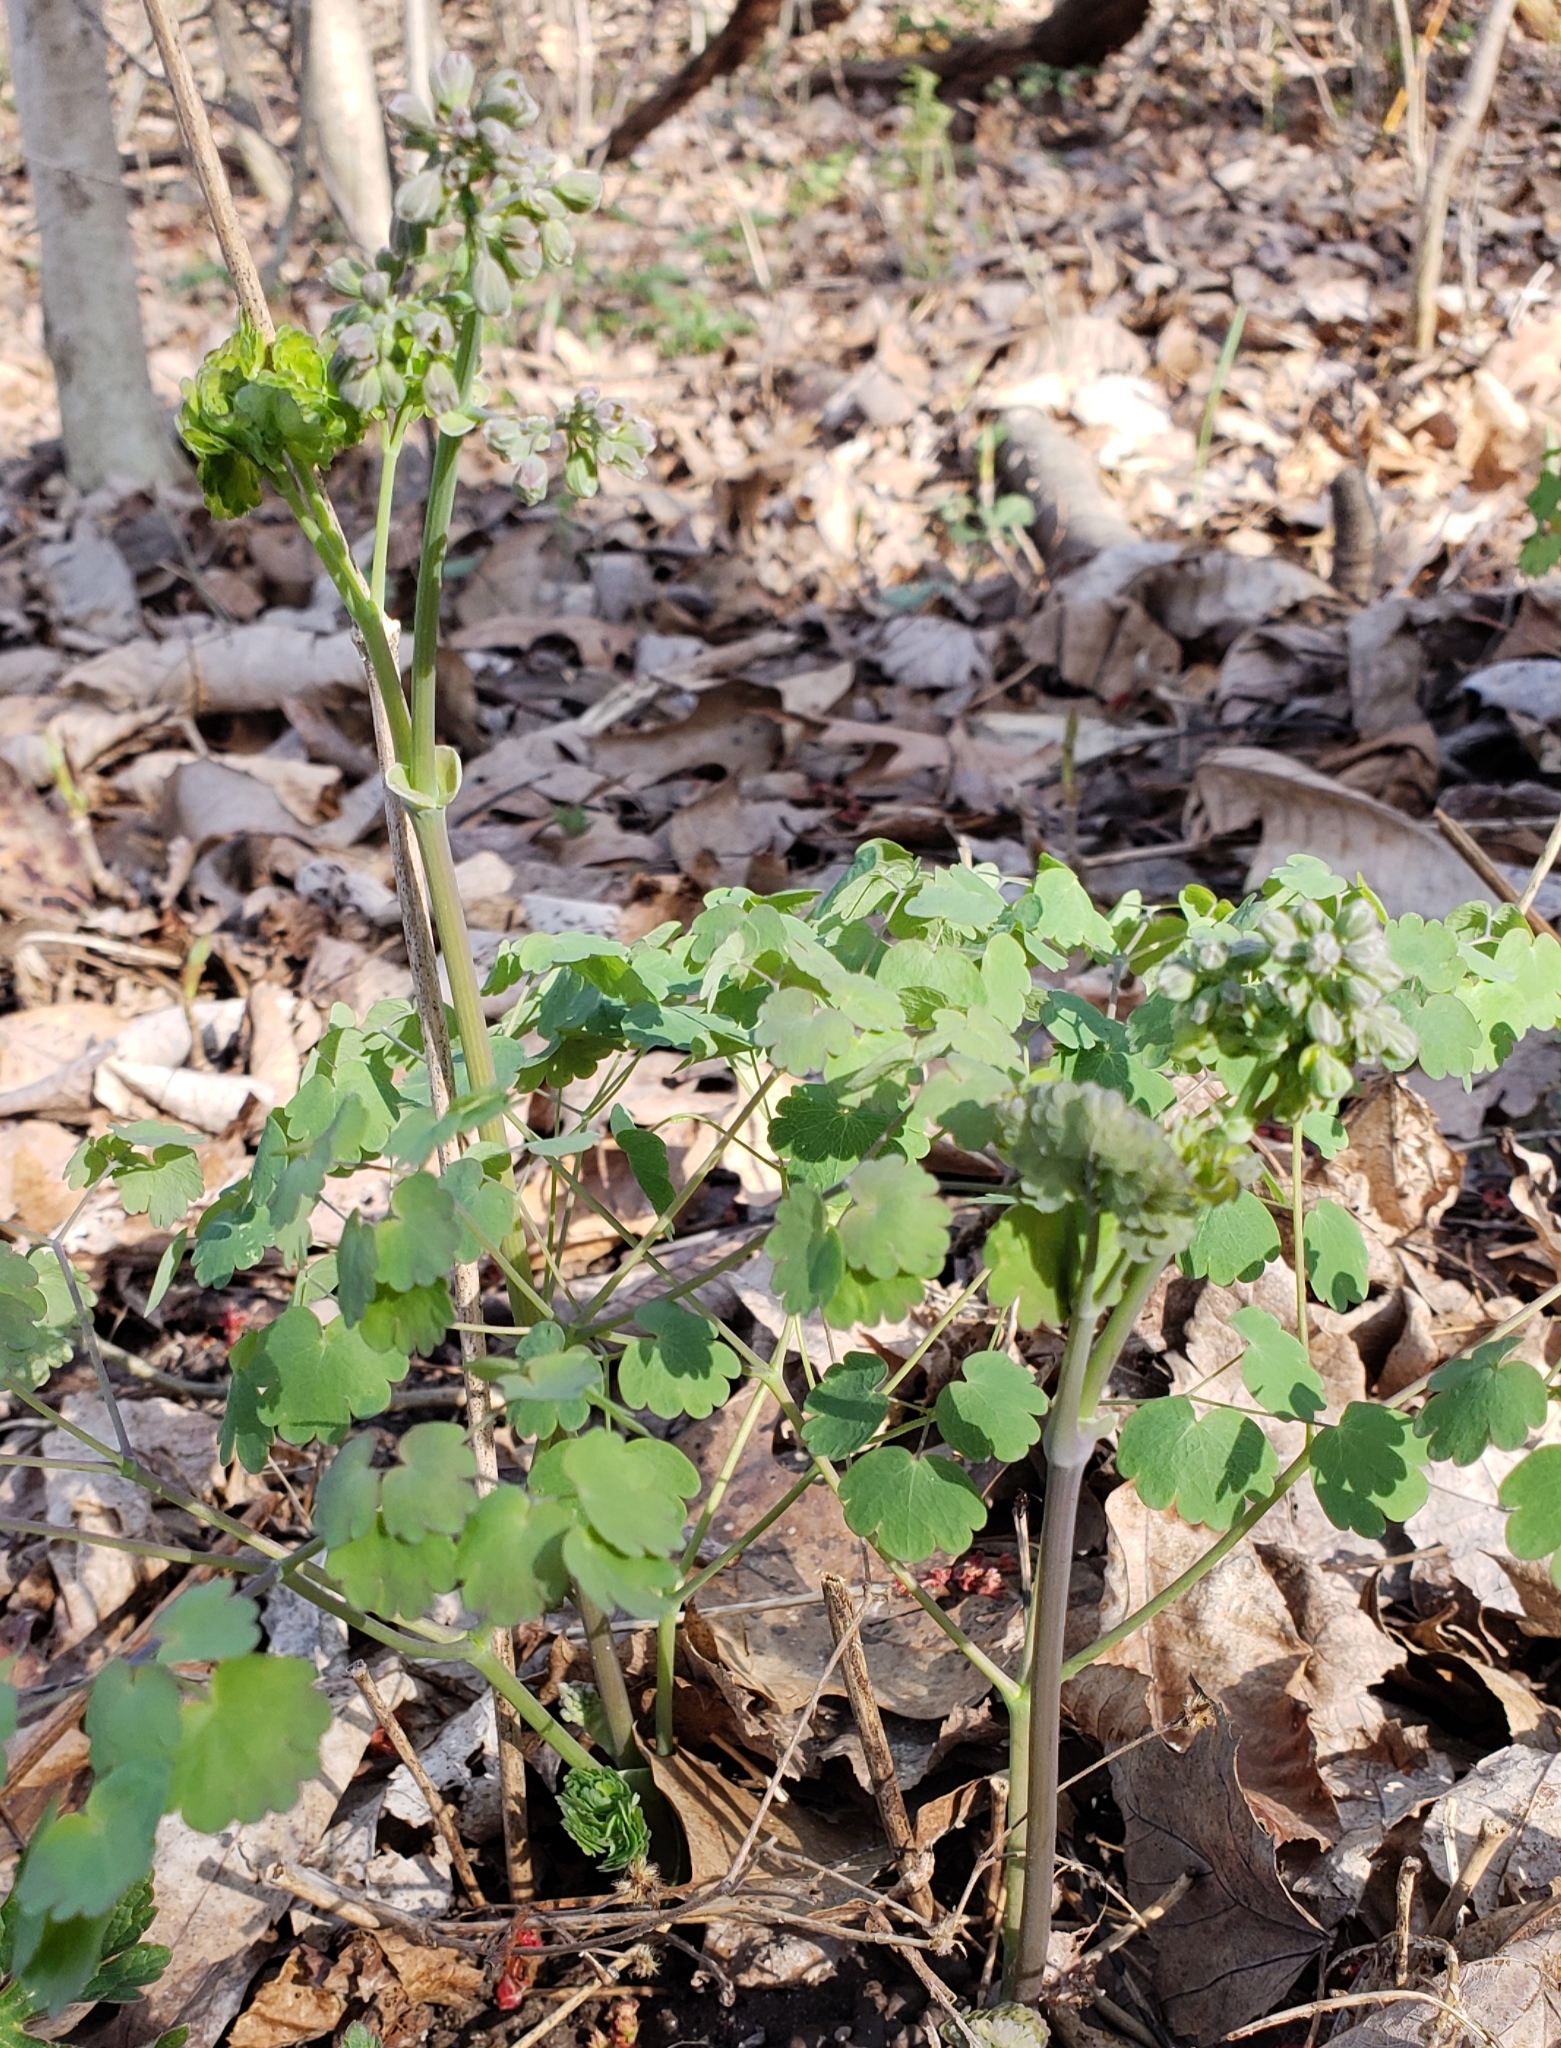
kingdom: Plantae
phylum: Tracheophyta
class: Magnoliopsida
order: Ranunculales
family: Ranunculaceae
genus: Thalictrum
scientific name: Thalictrum dioicum
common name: Early meadow-rue
